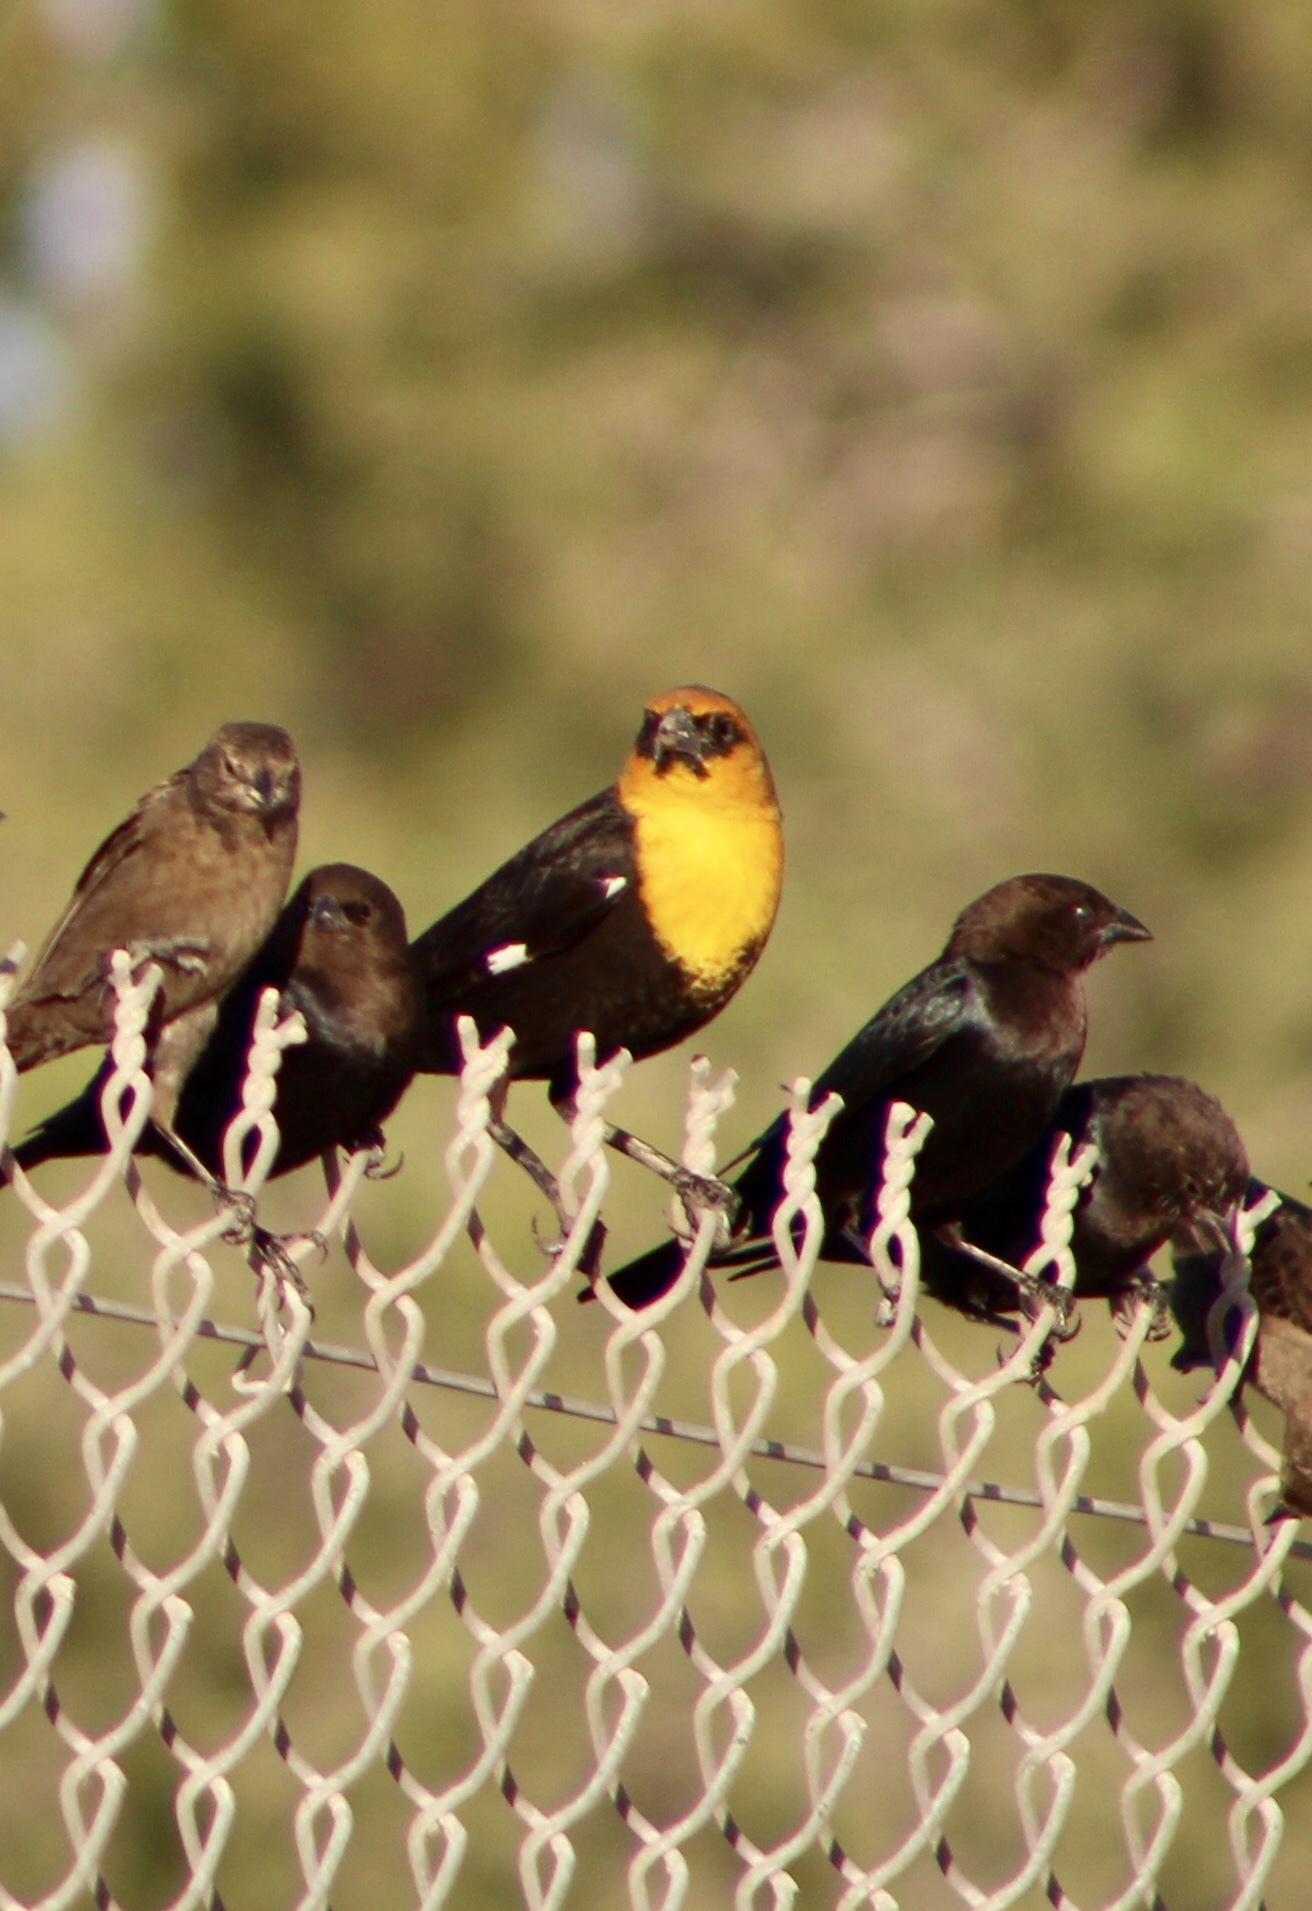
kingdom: Animalia
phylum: Chordata
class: Aves
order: Passeriformes
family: Icteridae
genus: Xanthocephalus
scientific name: Xanthocephalus xanthocephalus
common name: Yellow-headed blackbird
